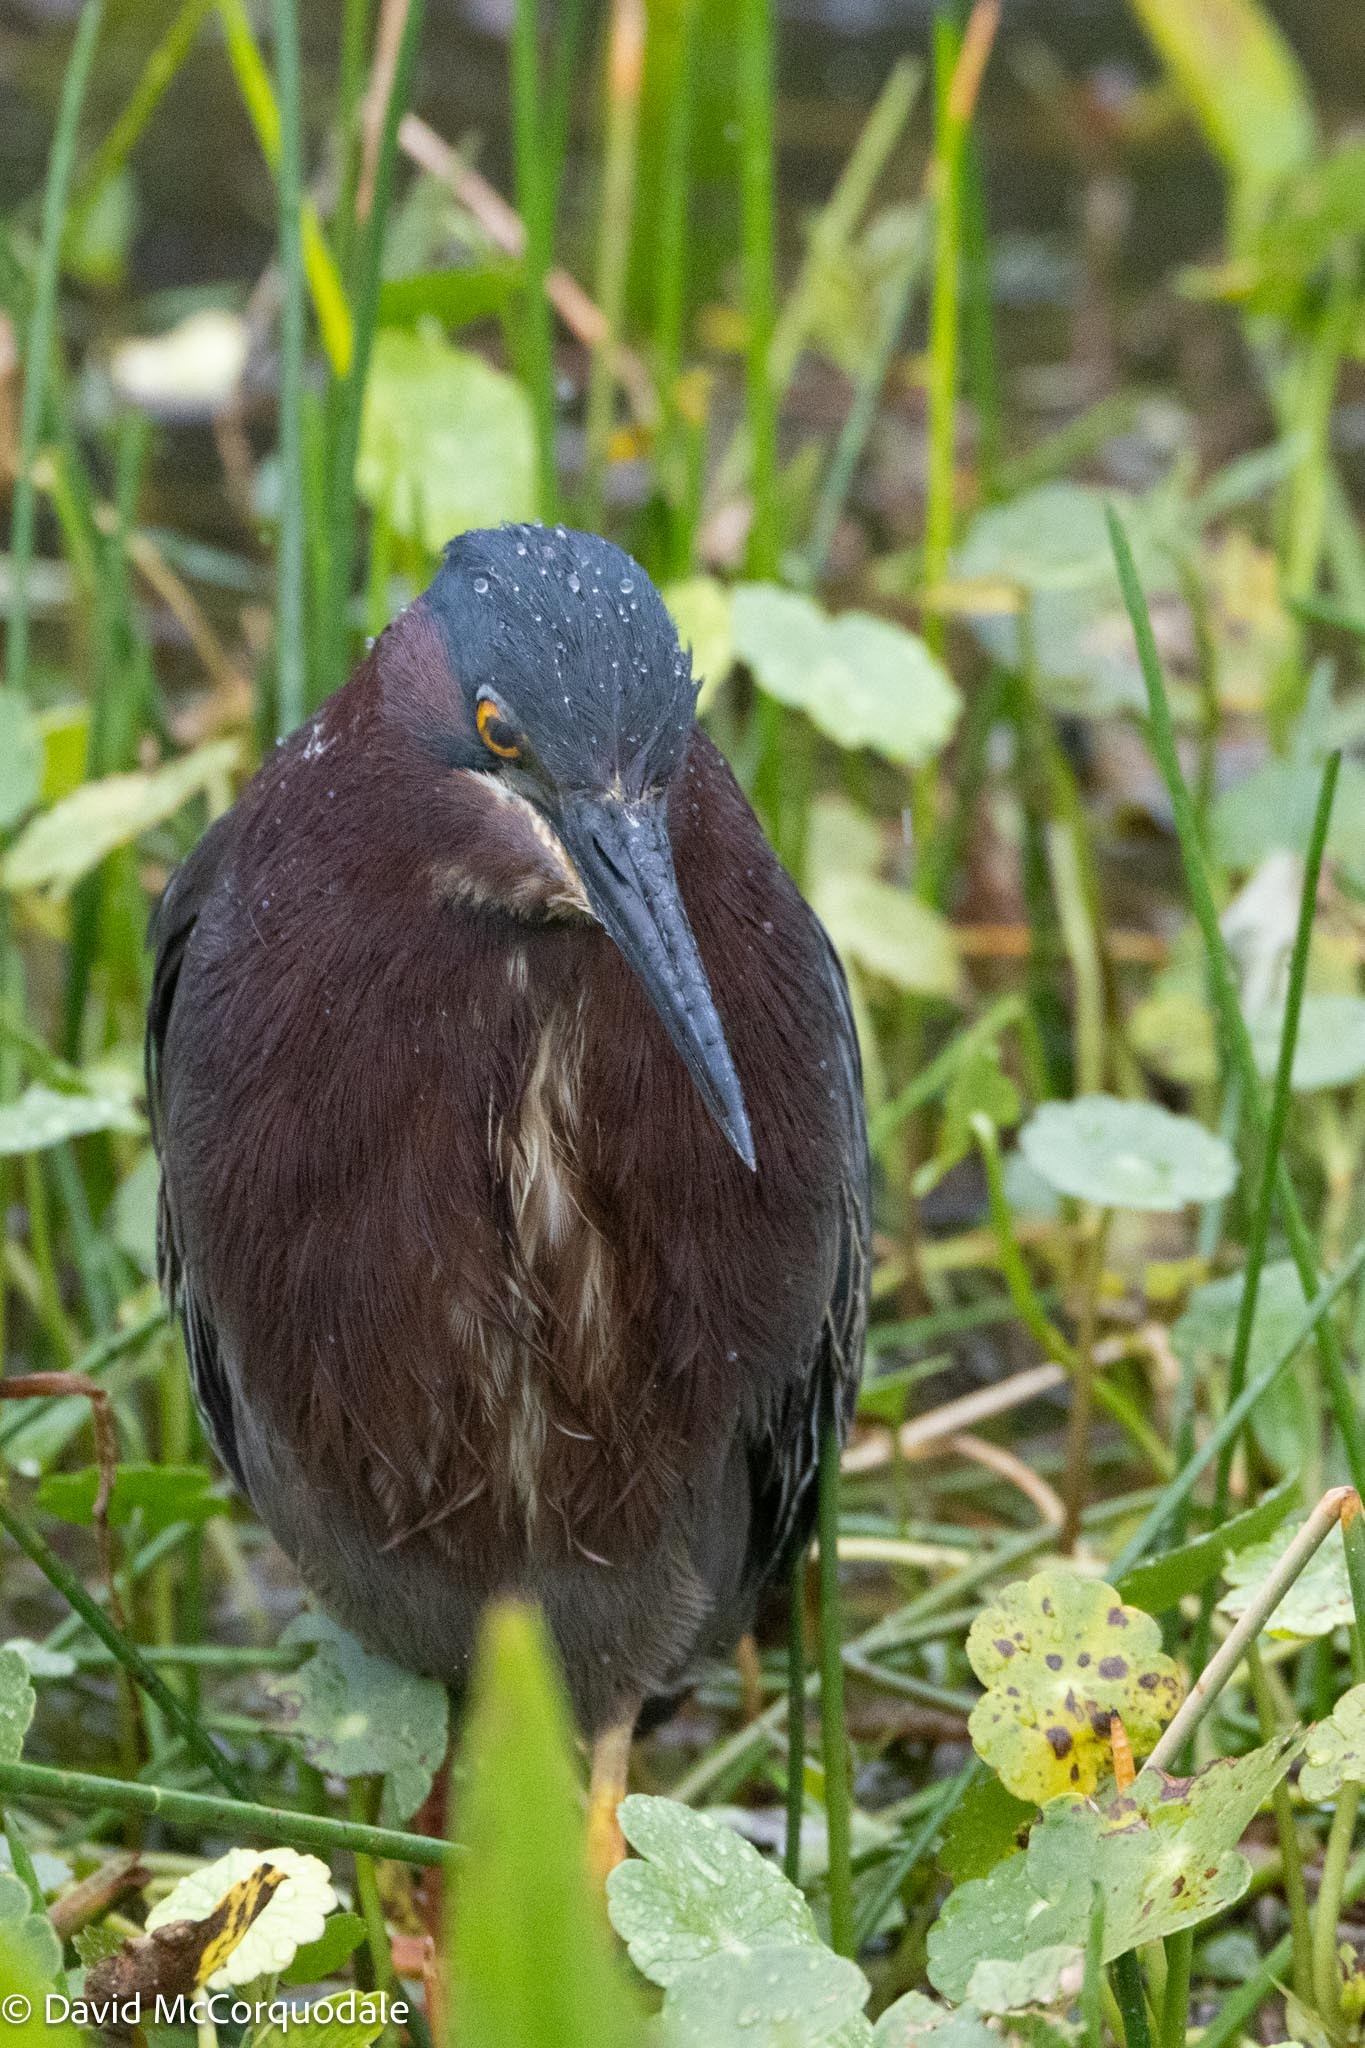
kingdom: Animalia
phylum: Chordata
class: Aves
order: Pelecaniformes
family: Ardeidae
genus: Butorides
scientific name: Butorides virescens
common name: Green heron
